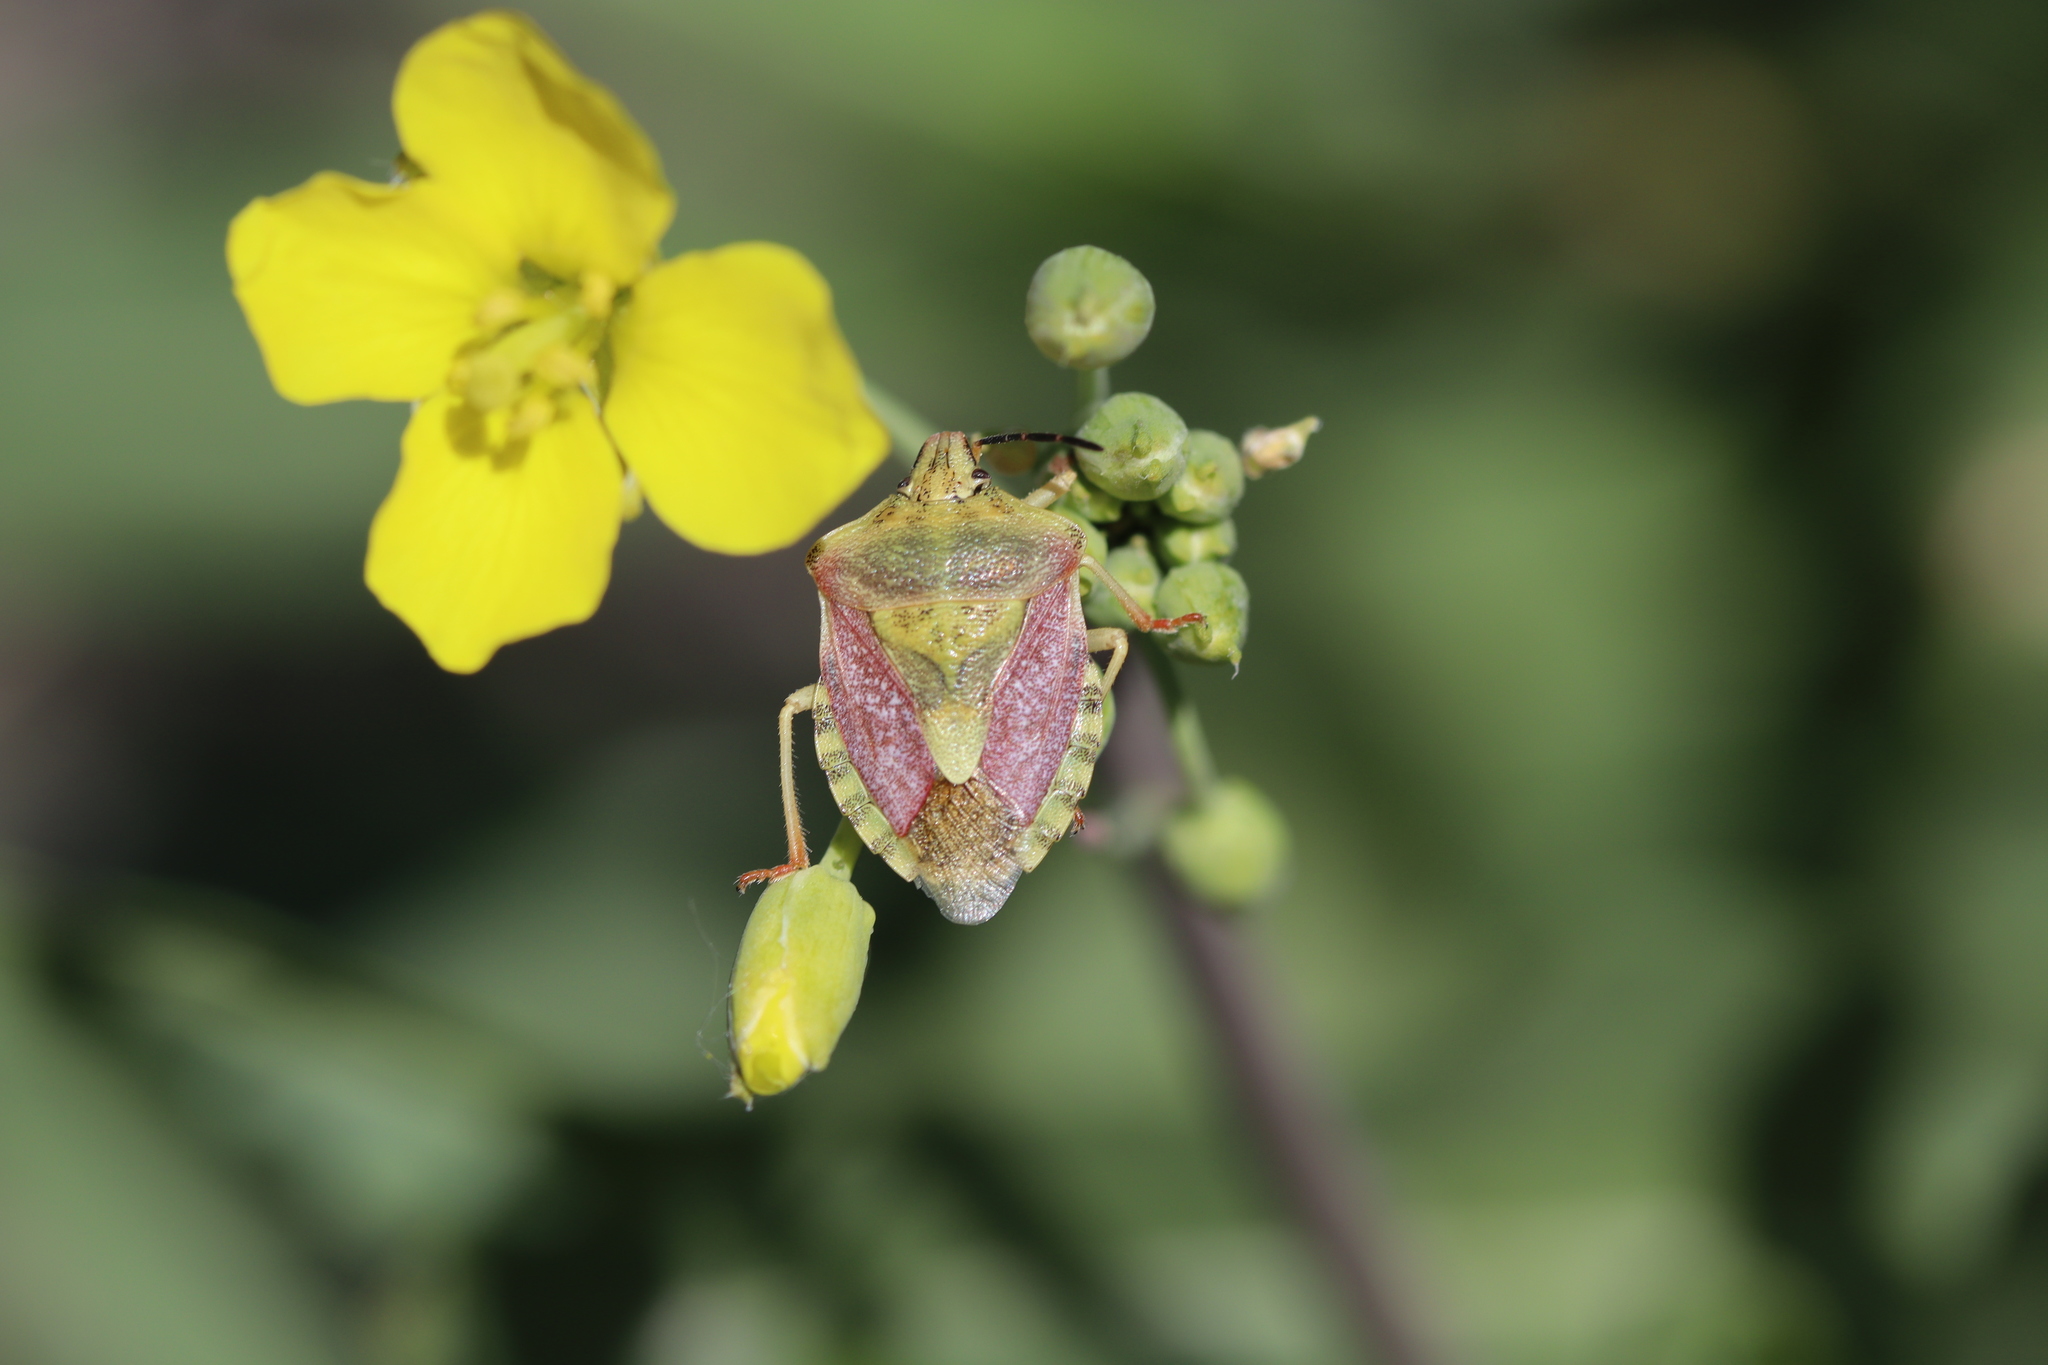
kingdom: Animalia
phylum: Arthropoda
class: Insecta
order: Hemiptera
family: Pentatomidae
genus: Carpocoris
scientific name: Carpocoris purpureipennis
